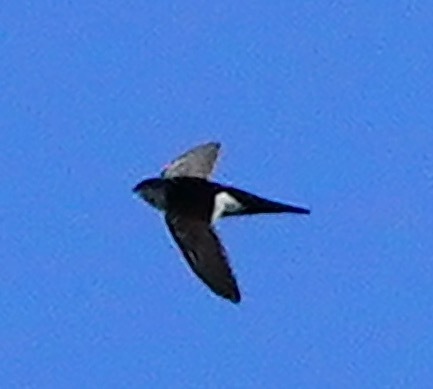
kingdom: Animalia
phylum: Chordata
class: Aves
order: Apodiformes
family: Apodidae
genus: Aeronautes
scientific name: Aeronautes saxatalis
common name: White-throated swift
